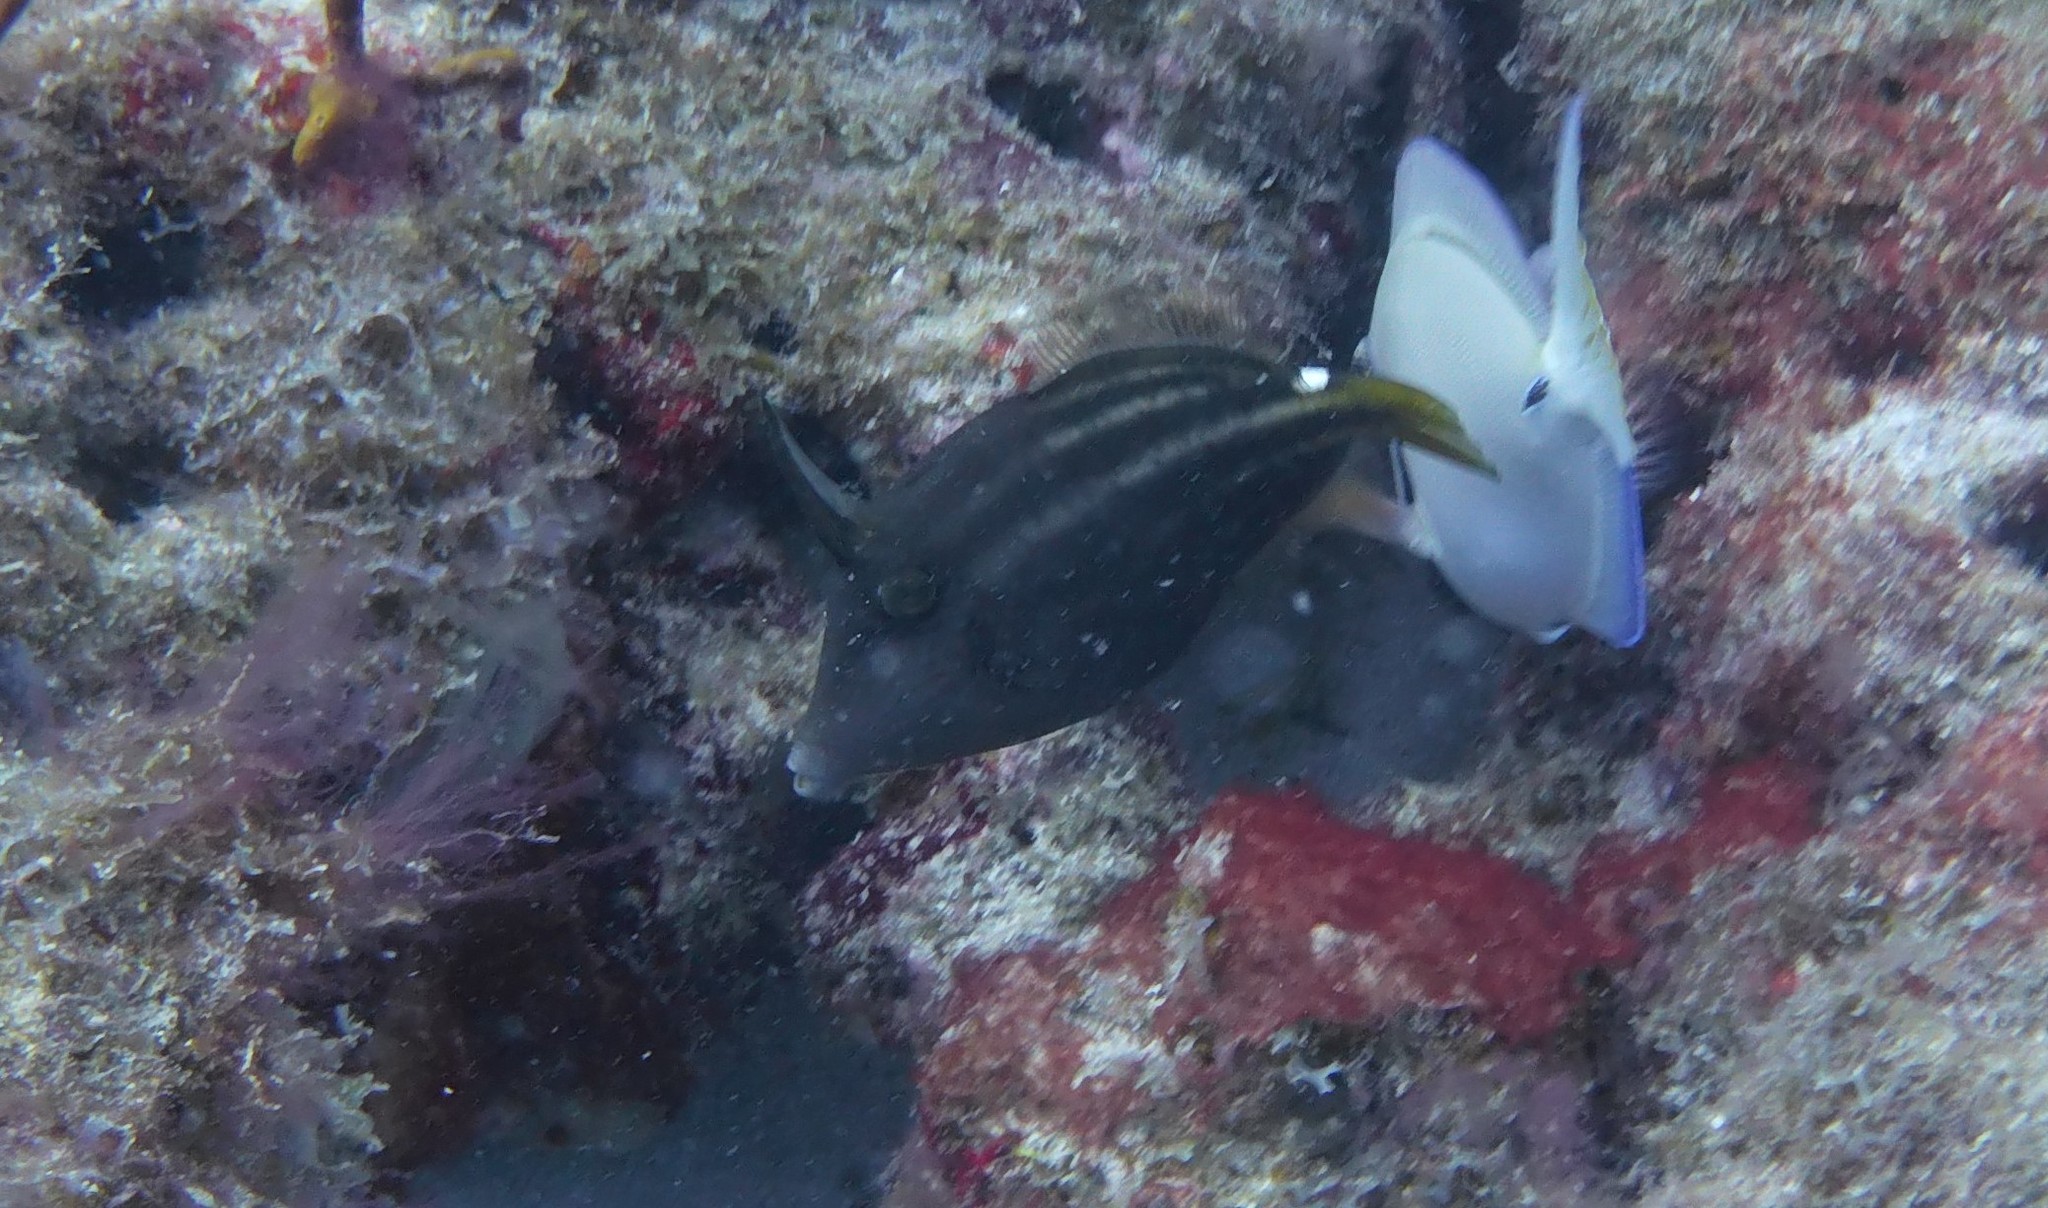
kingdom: Animalia
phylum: Chordata
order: Tetraodontiformes
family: Monacanthidae
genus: Cantherhines
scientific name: Cantherhines pullus
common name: Orangespotted filefish
